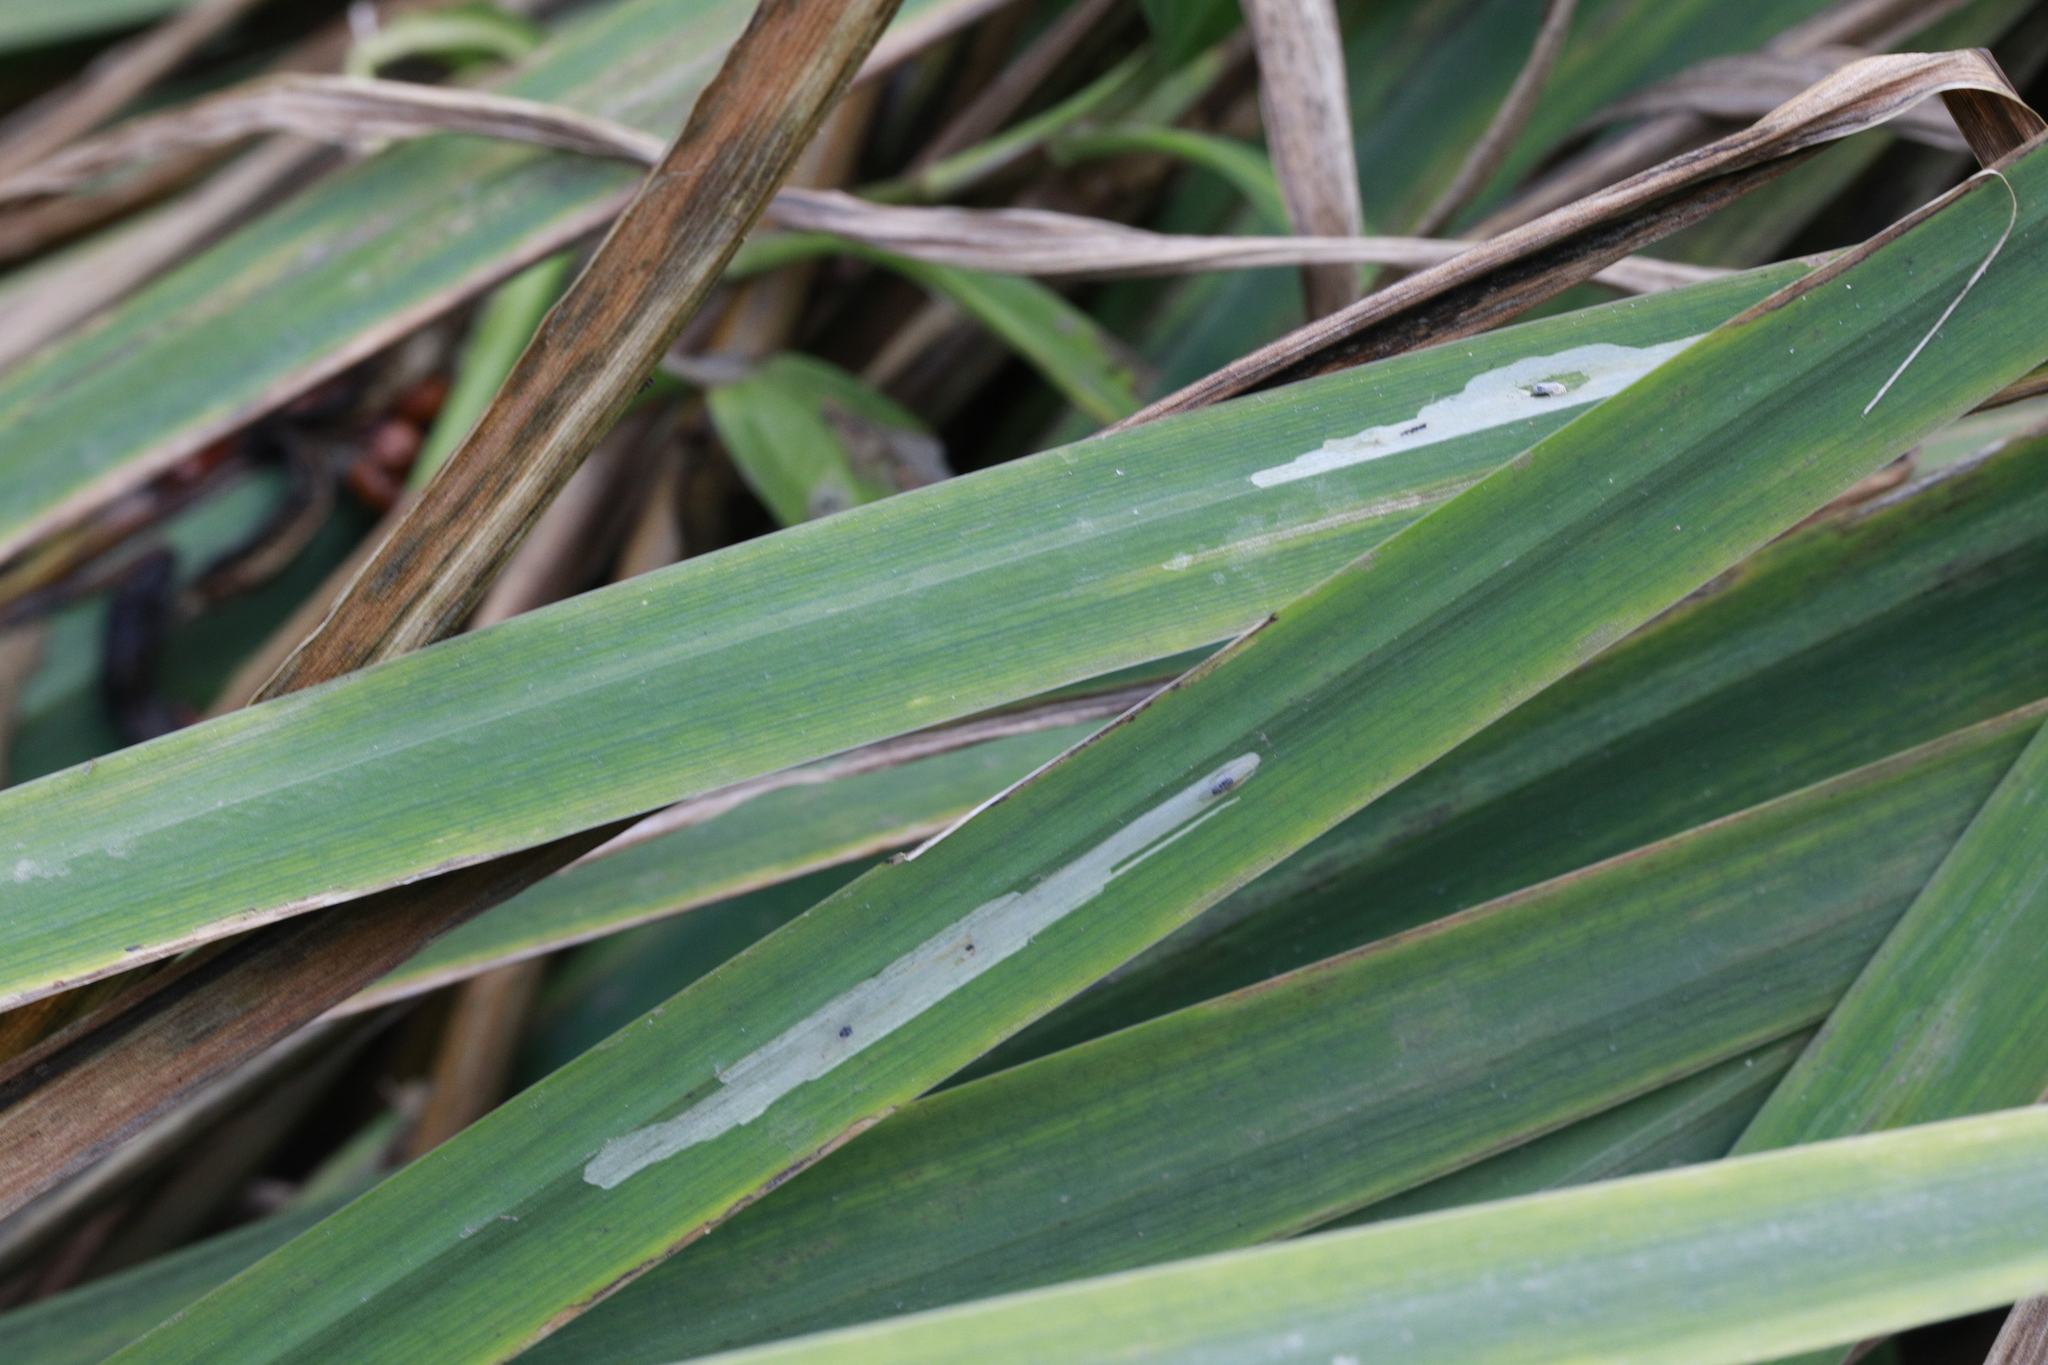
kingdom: Animalia
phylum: Arthropoda
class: Insecta
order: Diptera
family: Agromyzidae
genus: Cerodontha
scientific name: Cerodontha ircos
